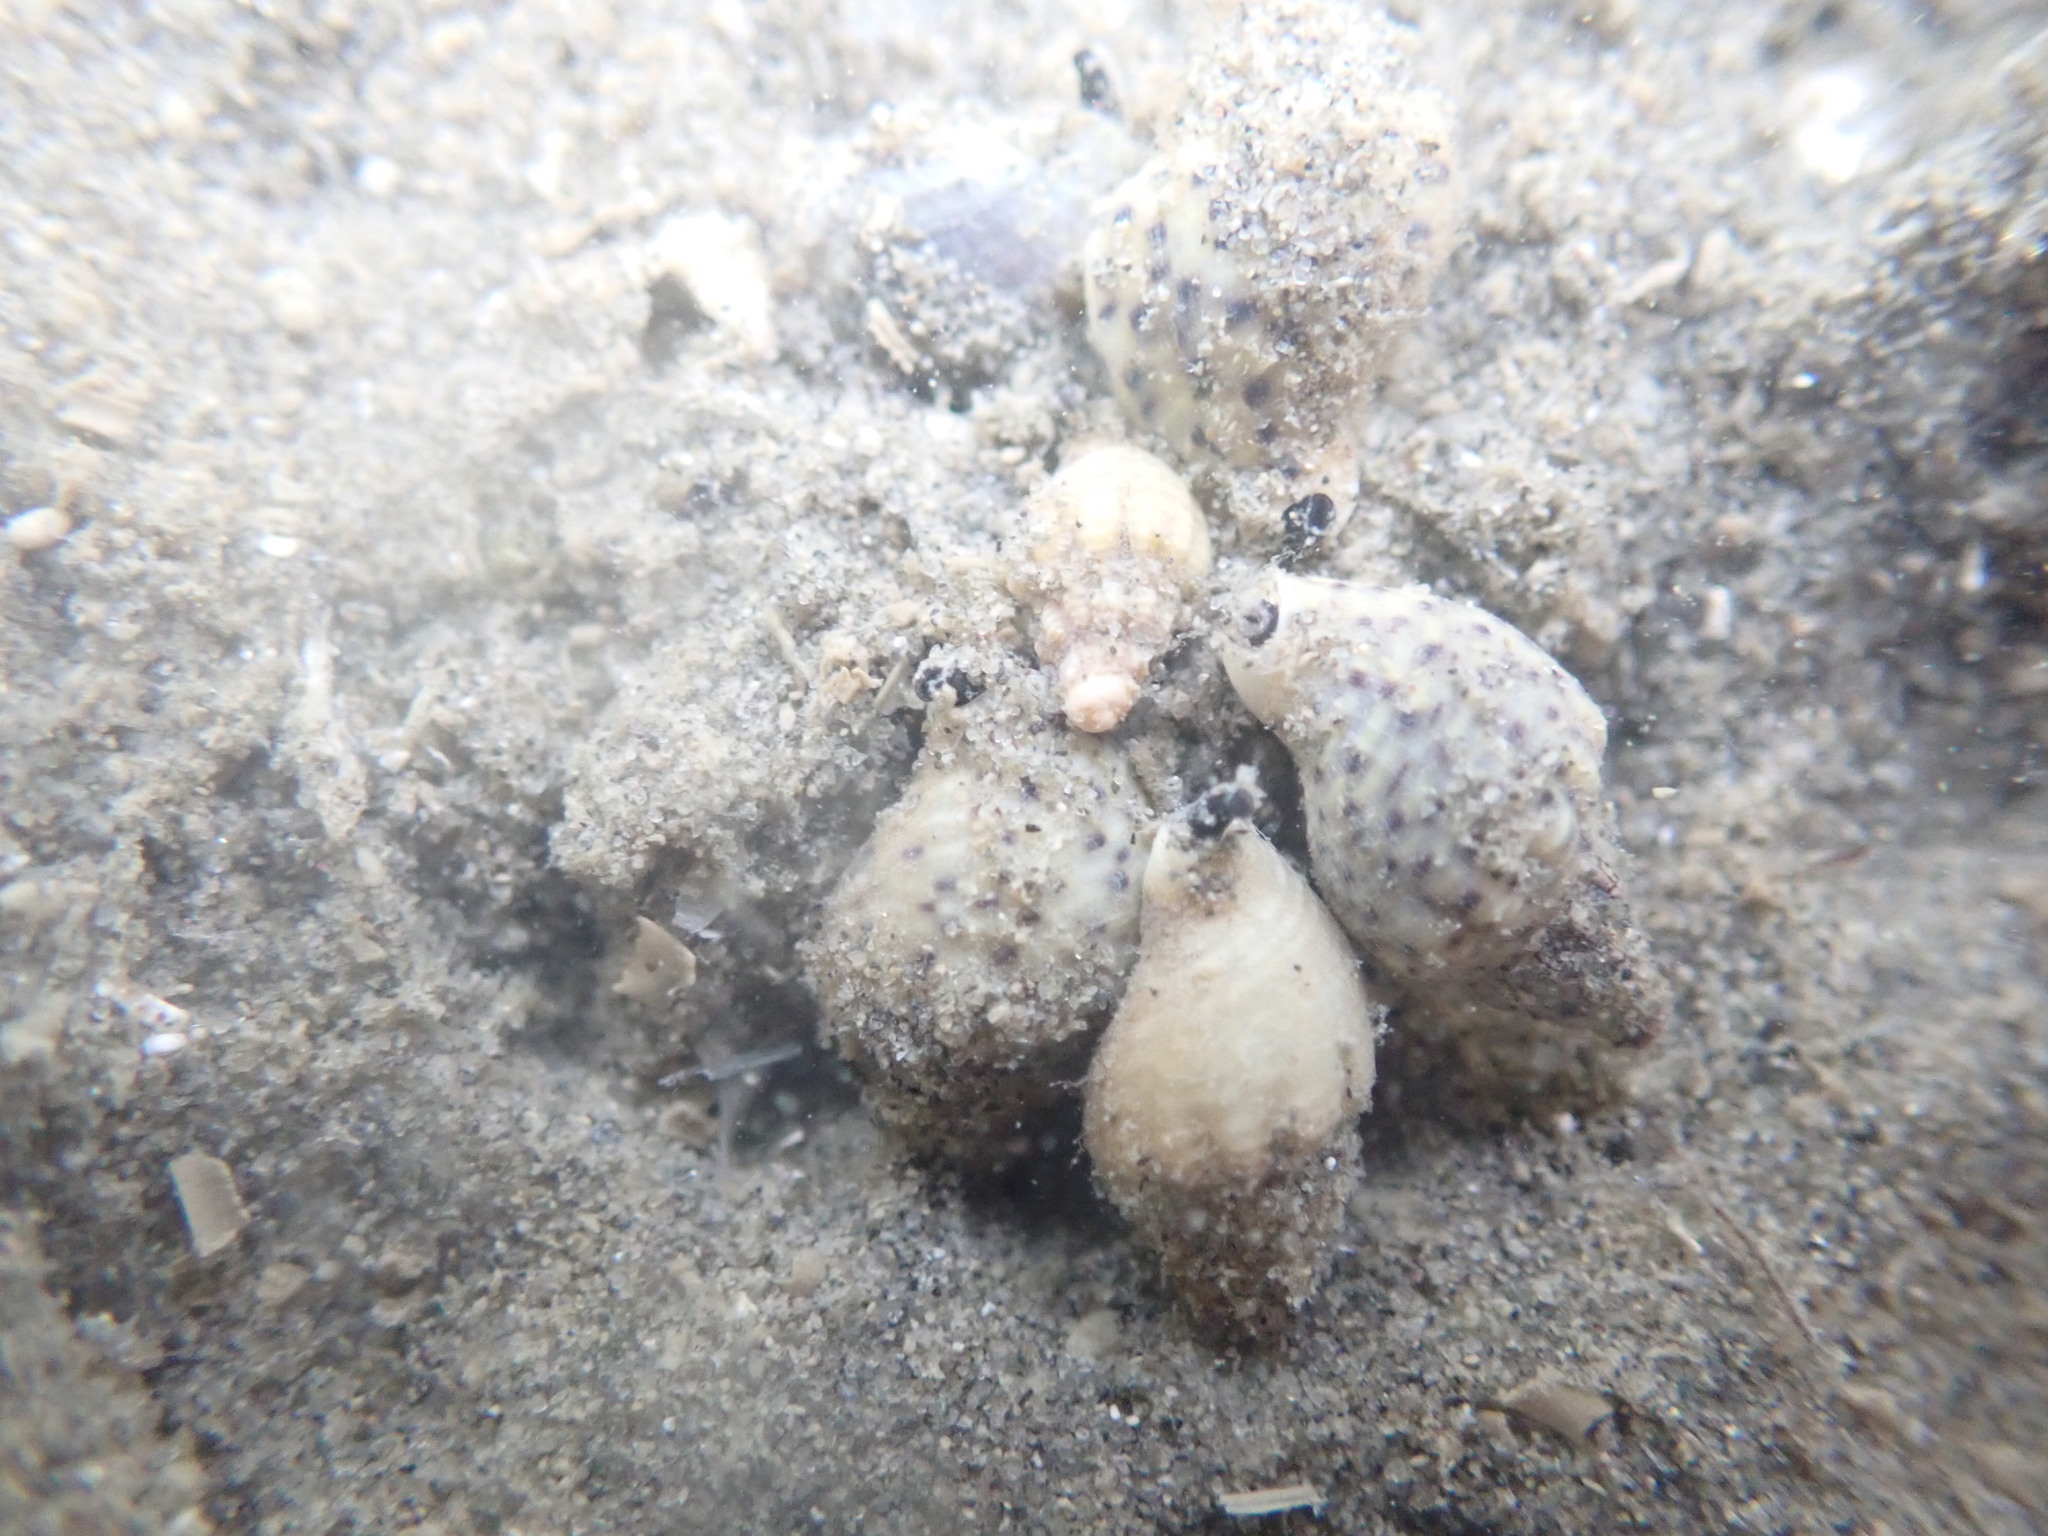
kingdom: Animalia
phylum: Mollusca
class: Gastropoda
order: Neogastropoda
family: Cominellidae
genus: Cominella
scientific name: Cominella adspersa
